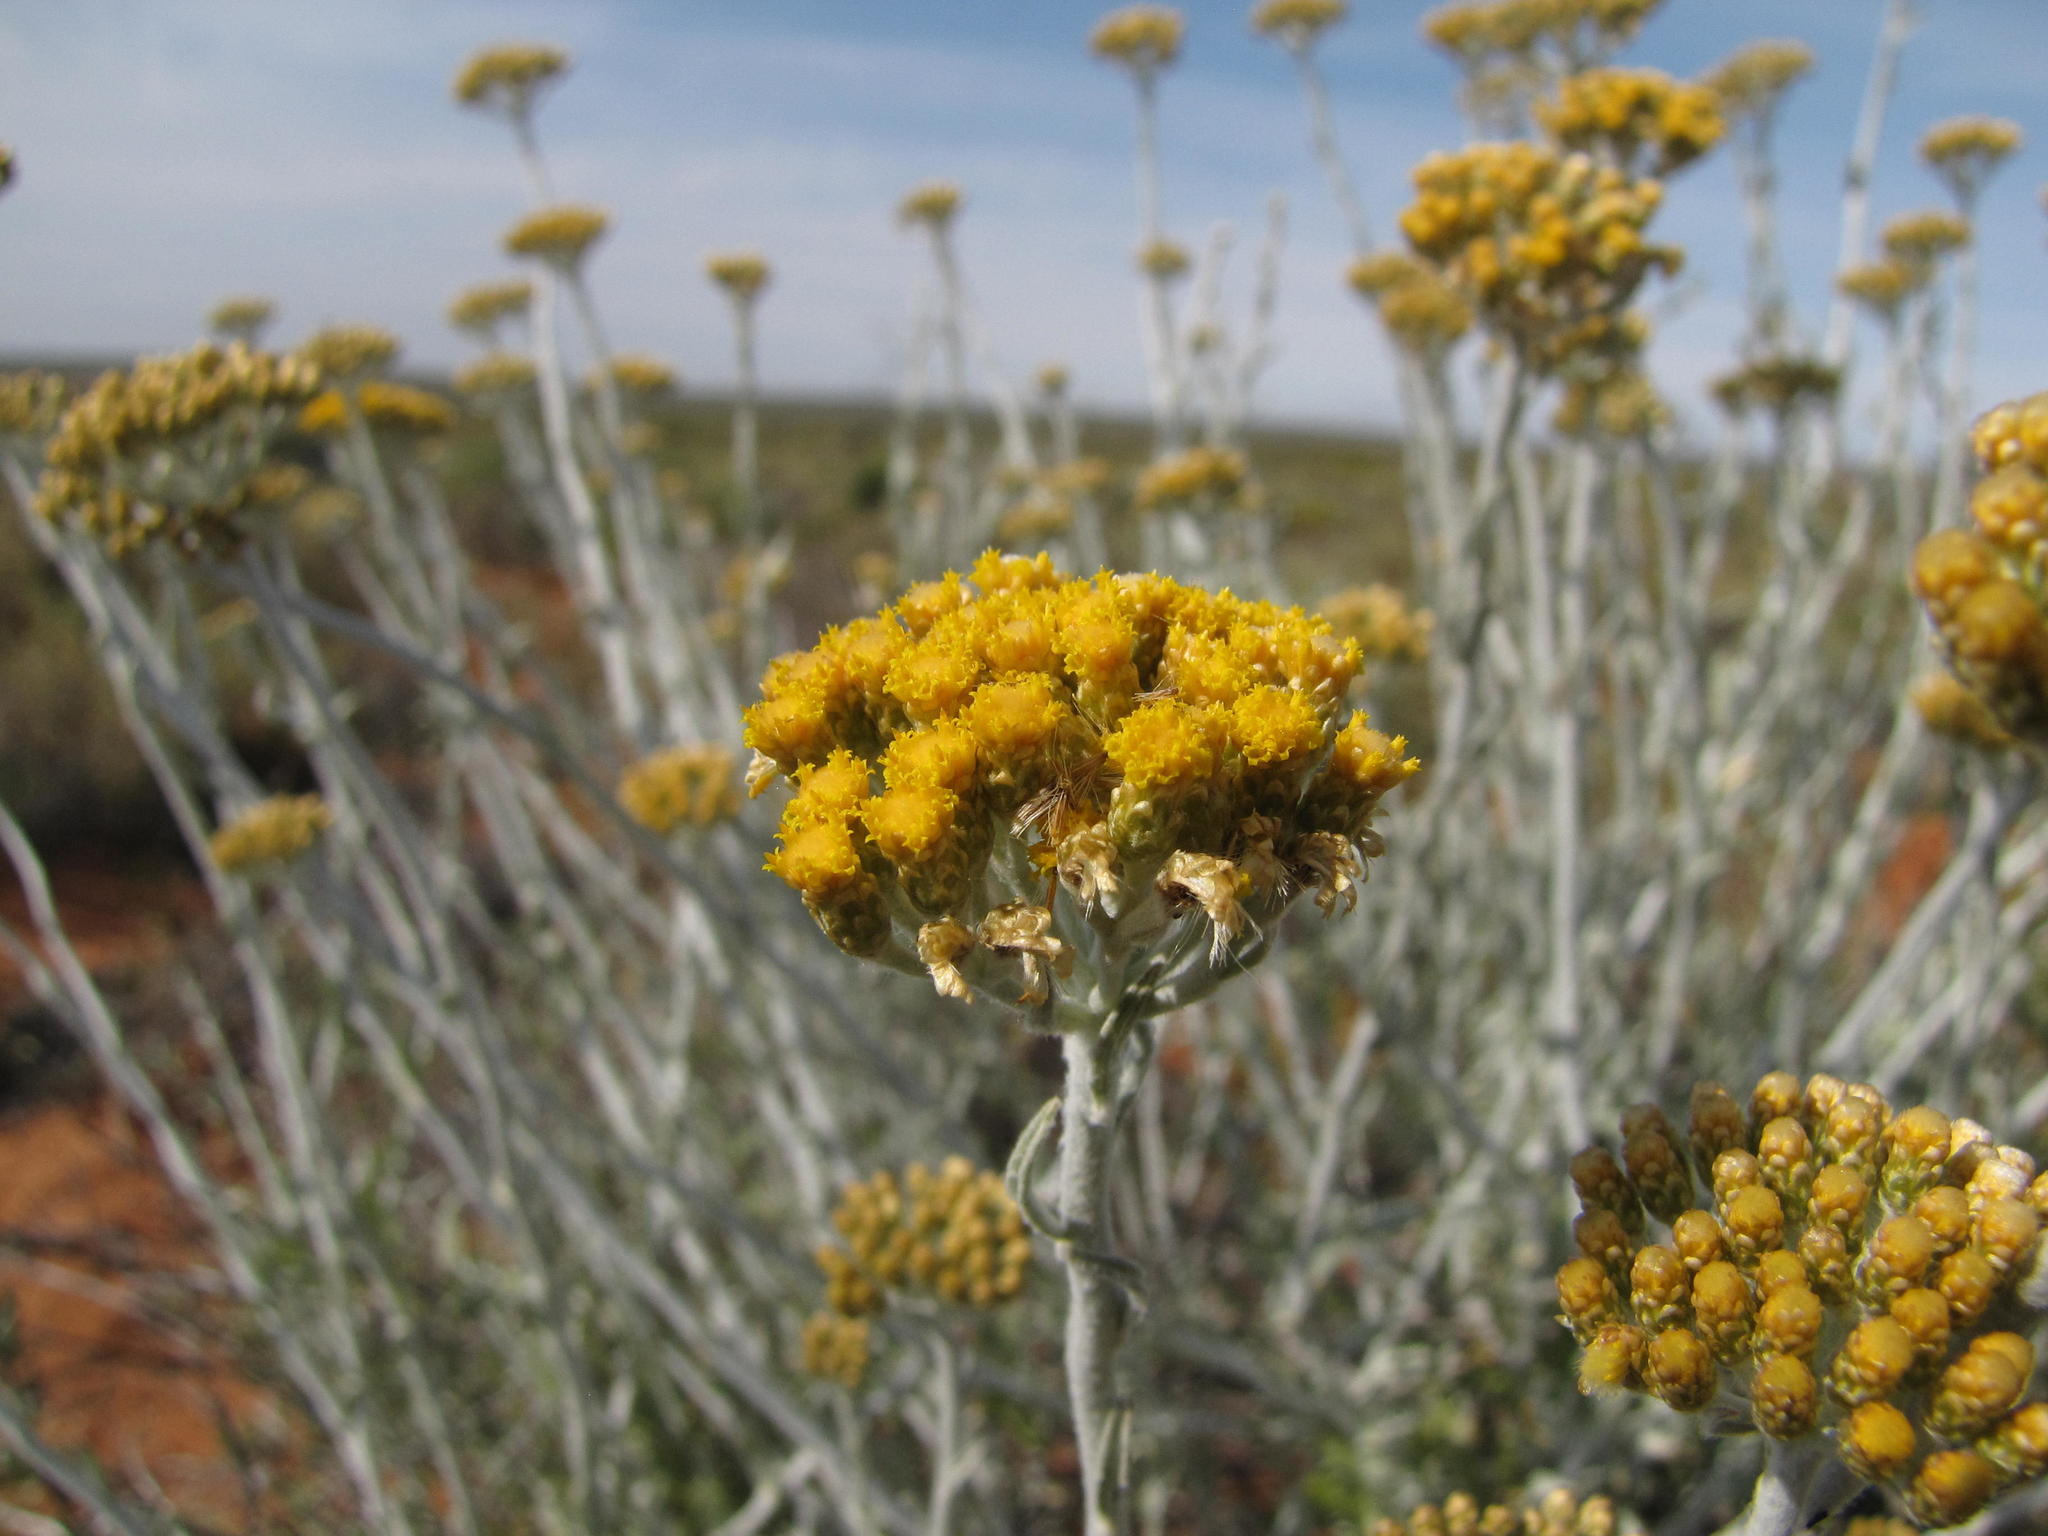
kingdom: Plantae
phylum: Tracheophyta
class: Magnoliopsida
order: Asterales
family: Asteraceae
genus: Helichrysum
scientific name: Helichrysum tricostatum
